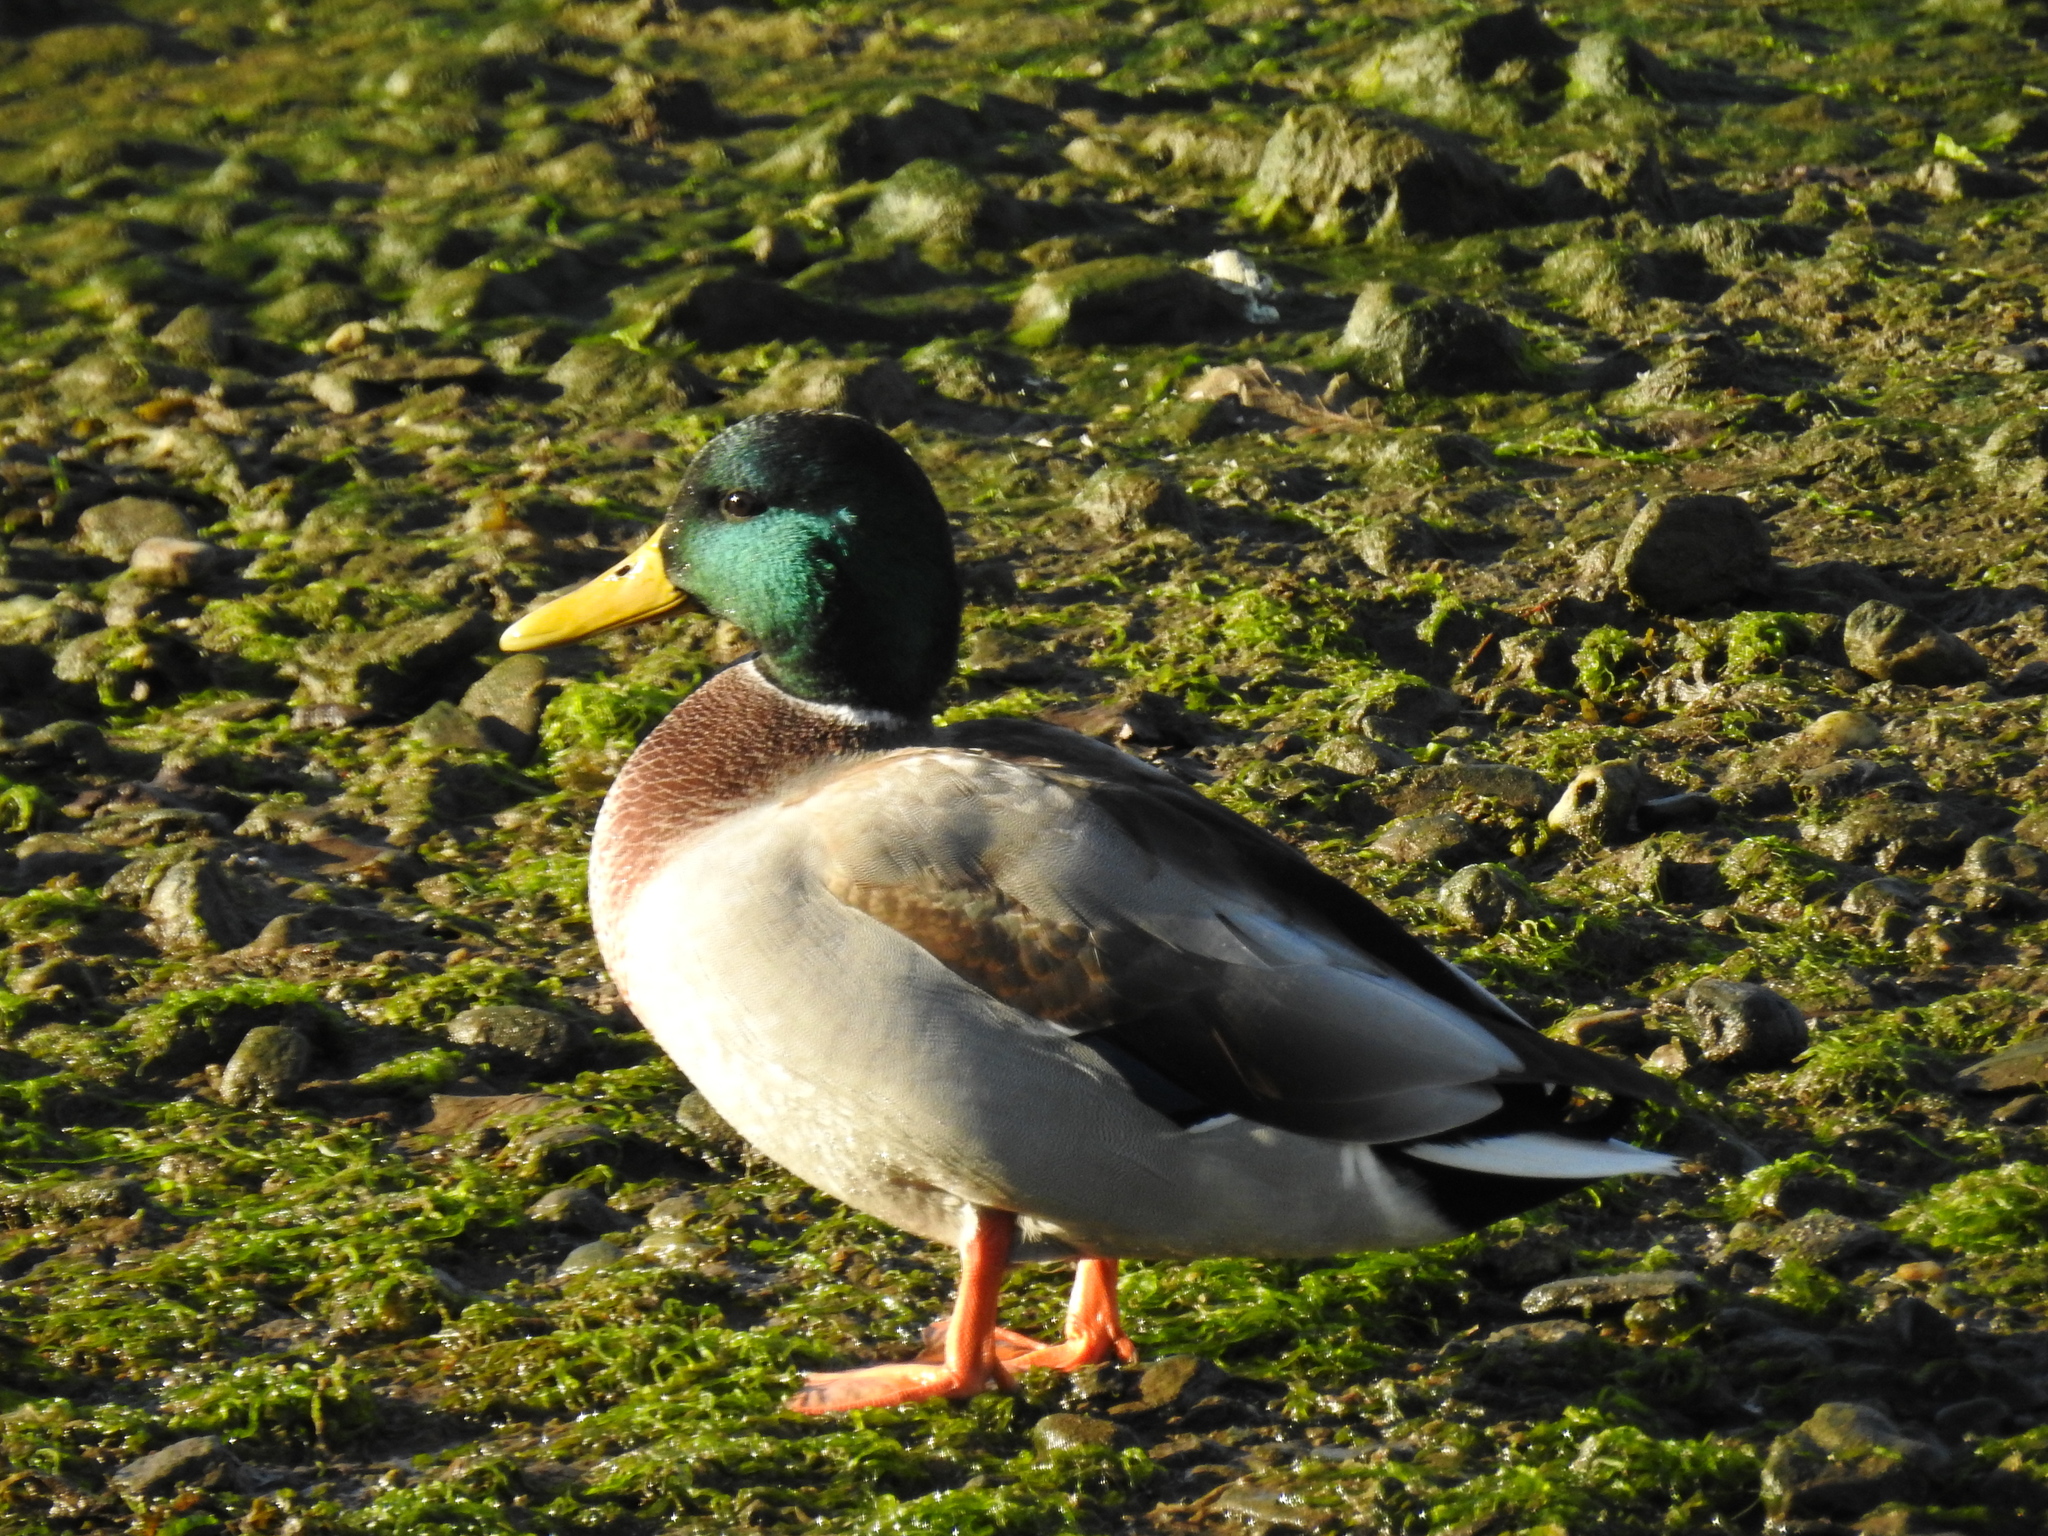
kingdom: Animalia
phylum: Chordata
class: Aves
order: Anseriformes
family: Anatidae
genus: Anas
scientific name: Anas platyrhynchos
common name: Mallard
